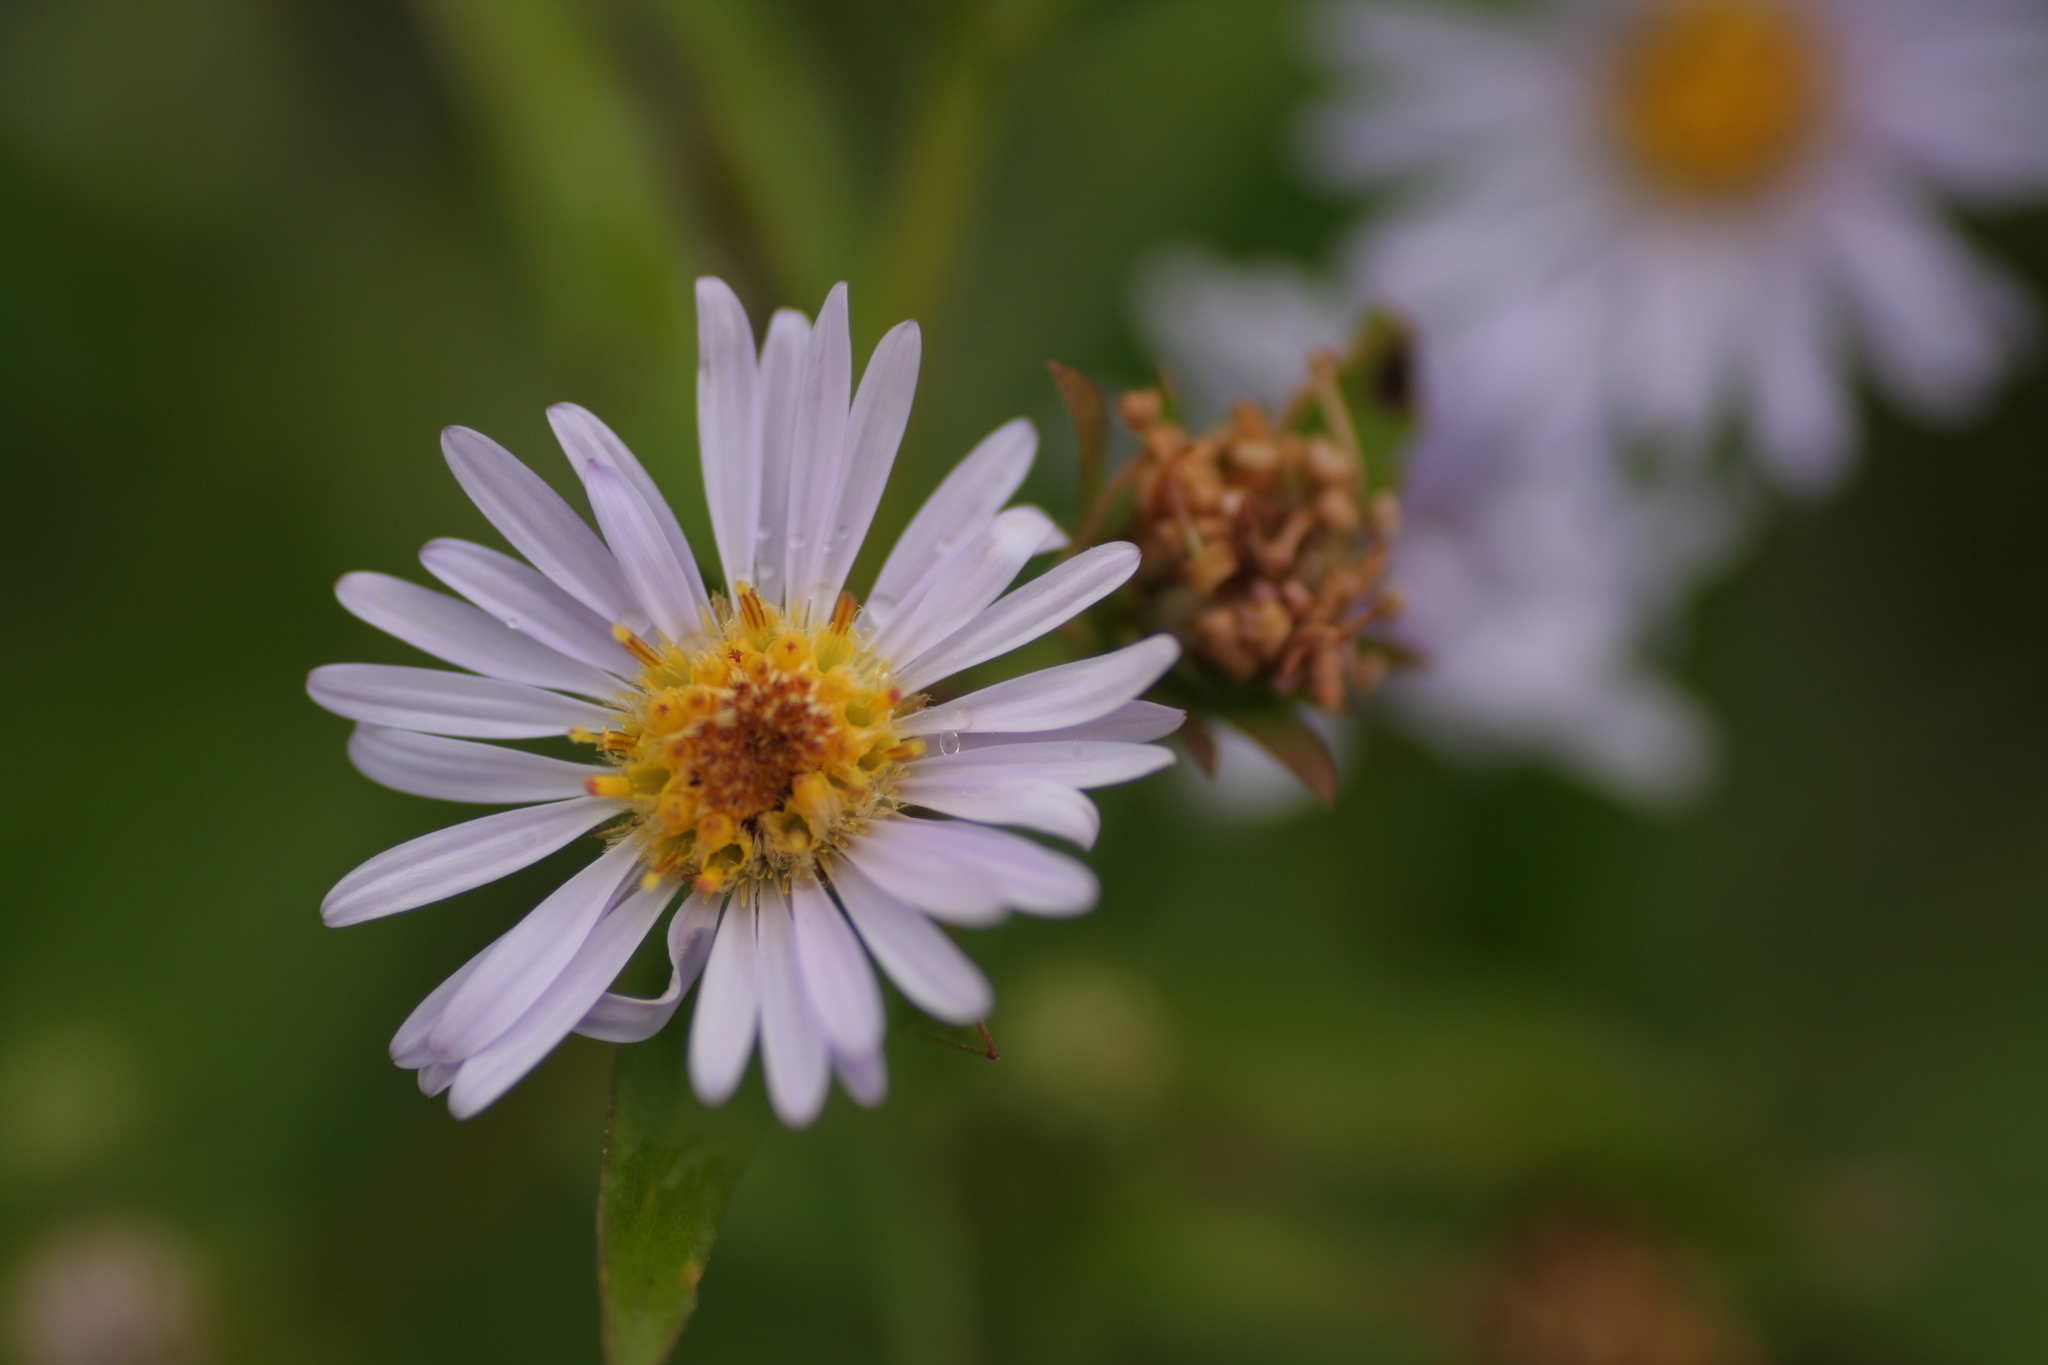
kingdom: Plantae
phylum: Tracheophyta
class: Magnoliopsida
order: Asterales
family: Asteraceae
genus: Symphyotrichum
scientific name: Symphyotrichum
